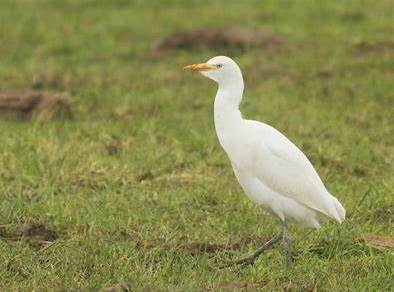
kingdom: Animalia
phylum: Chordata
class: Aves
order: Pelecaniformes
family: Ardeidae
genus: Bubulcus
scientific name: Bubulcus ibis
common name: Cattle egret
